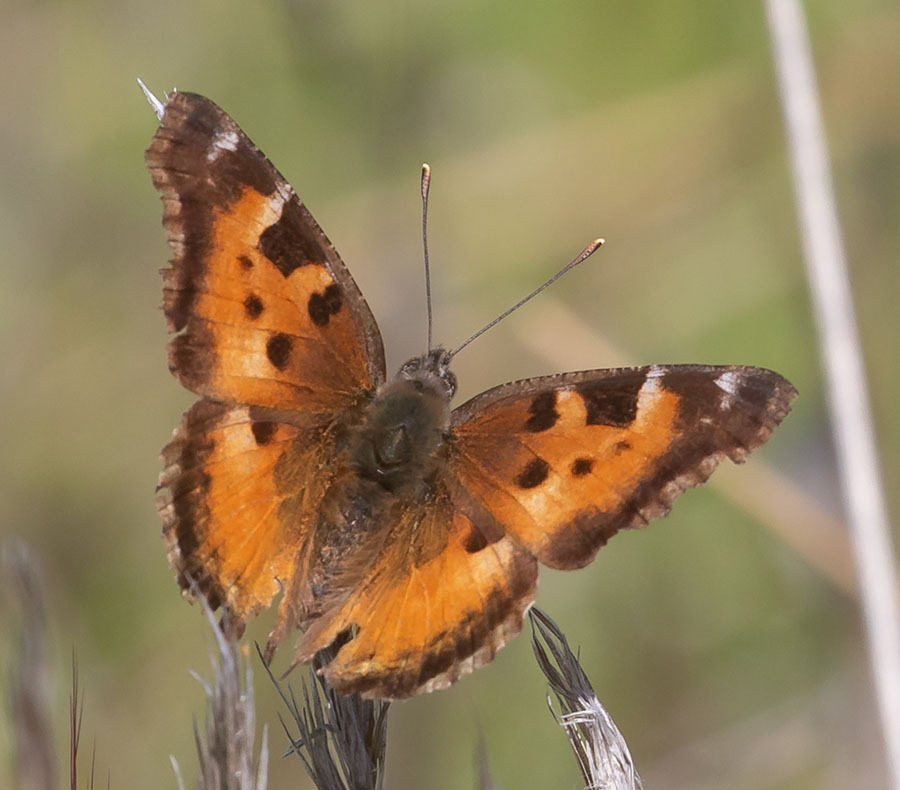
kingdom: Animalia
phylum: Arthropoda
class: Insecta
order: Lepidoptera
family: Nymphalidae
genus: Nymphalis
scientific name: Nymphalis californica
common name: California tortoiseshell
